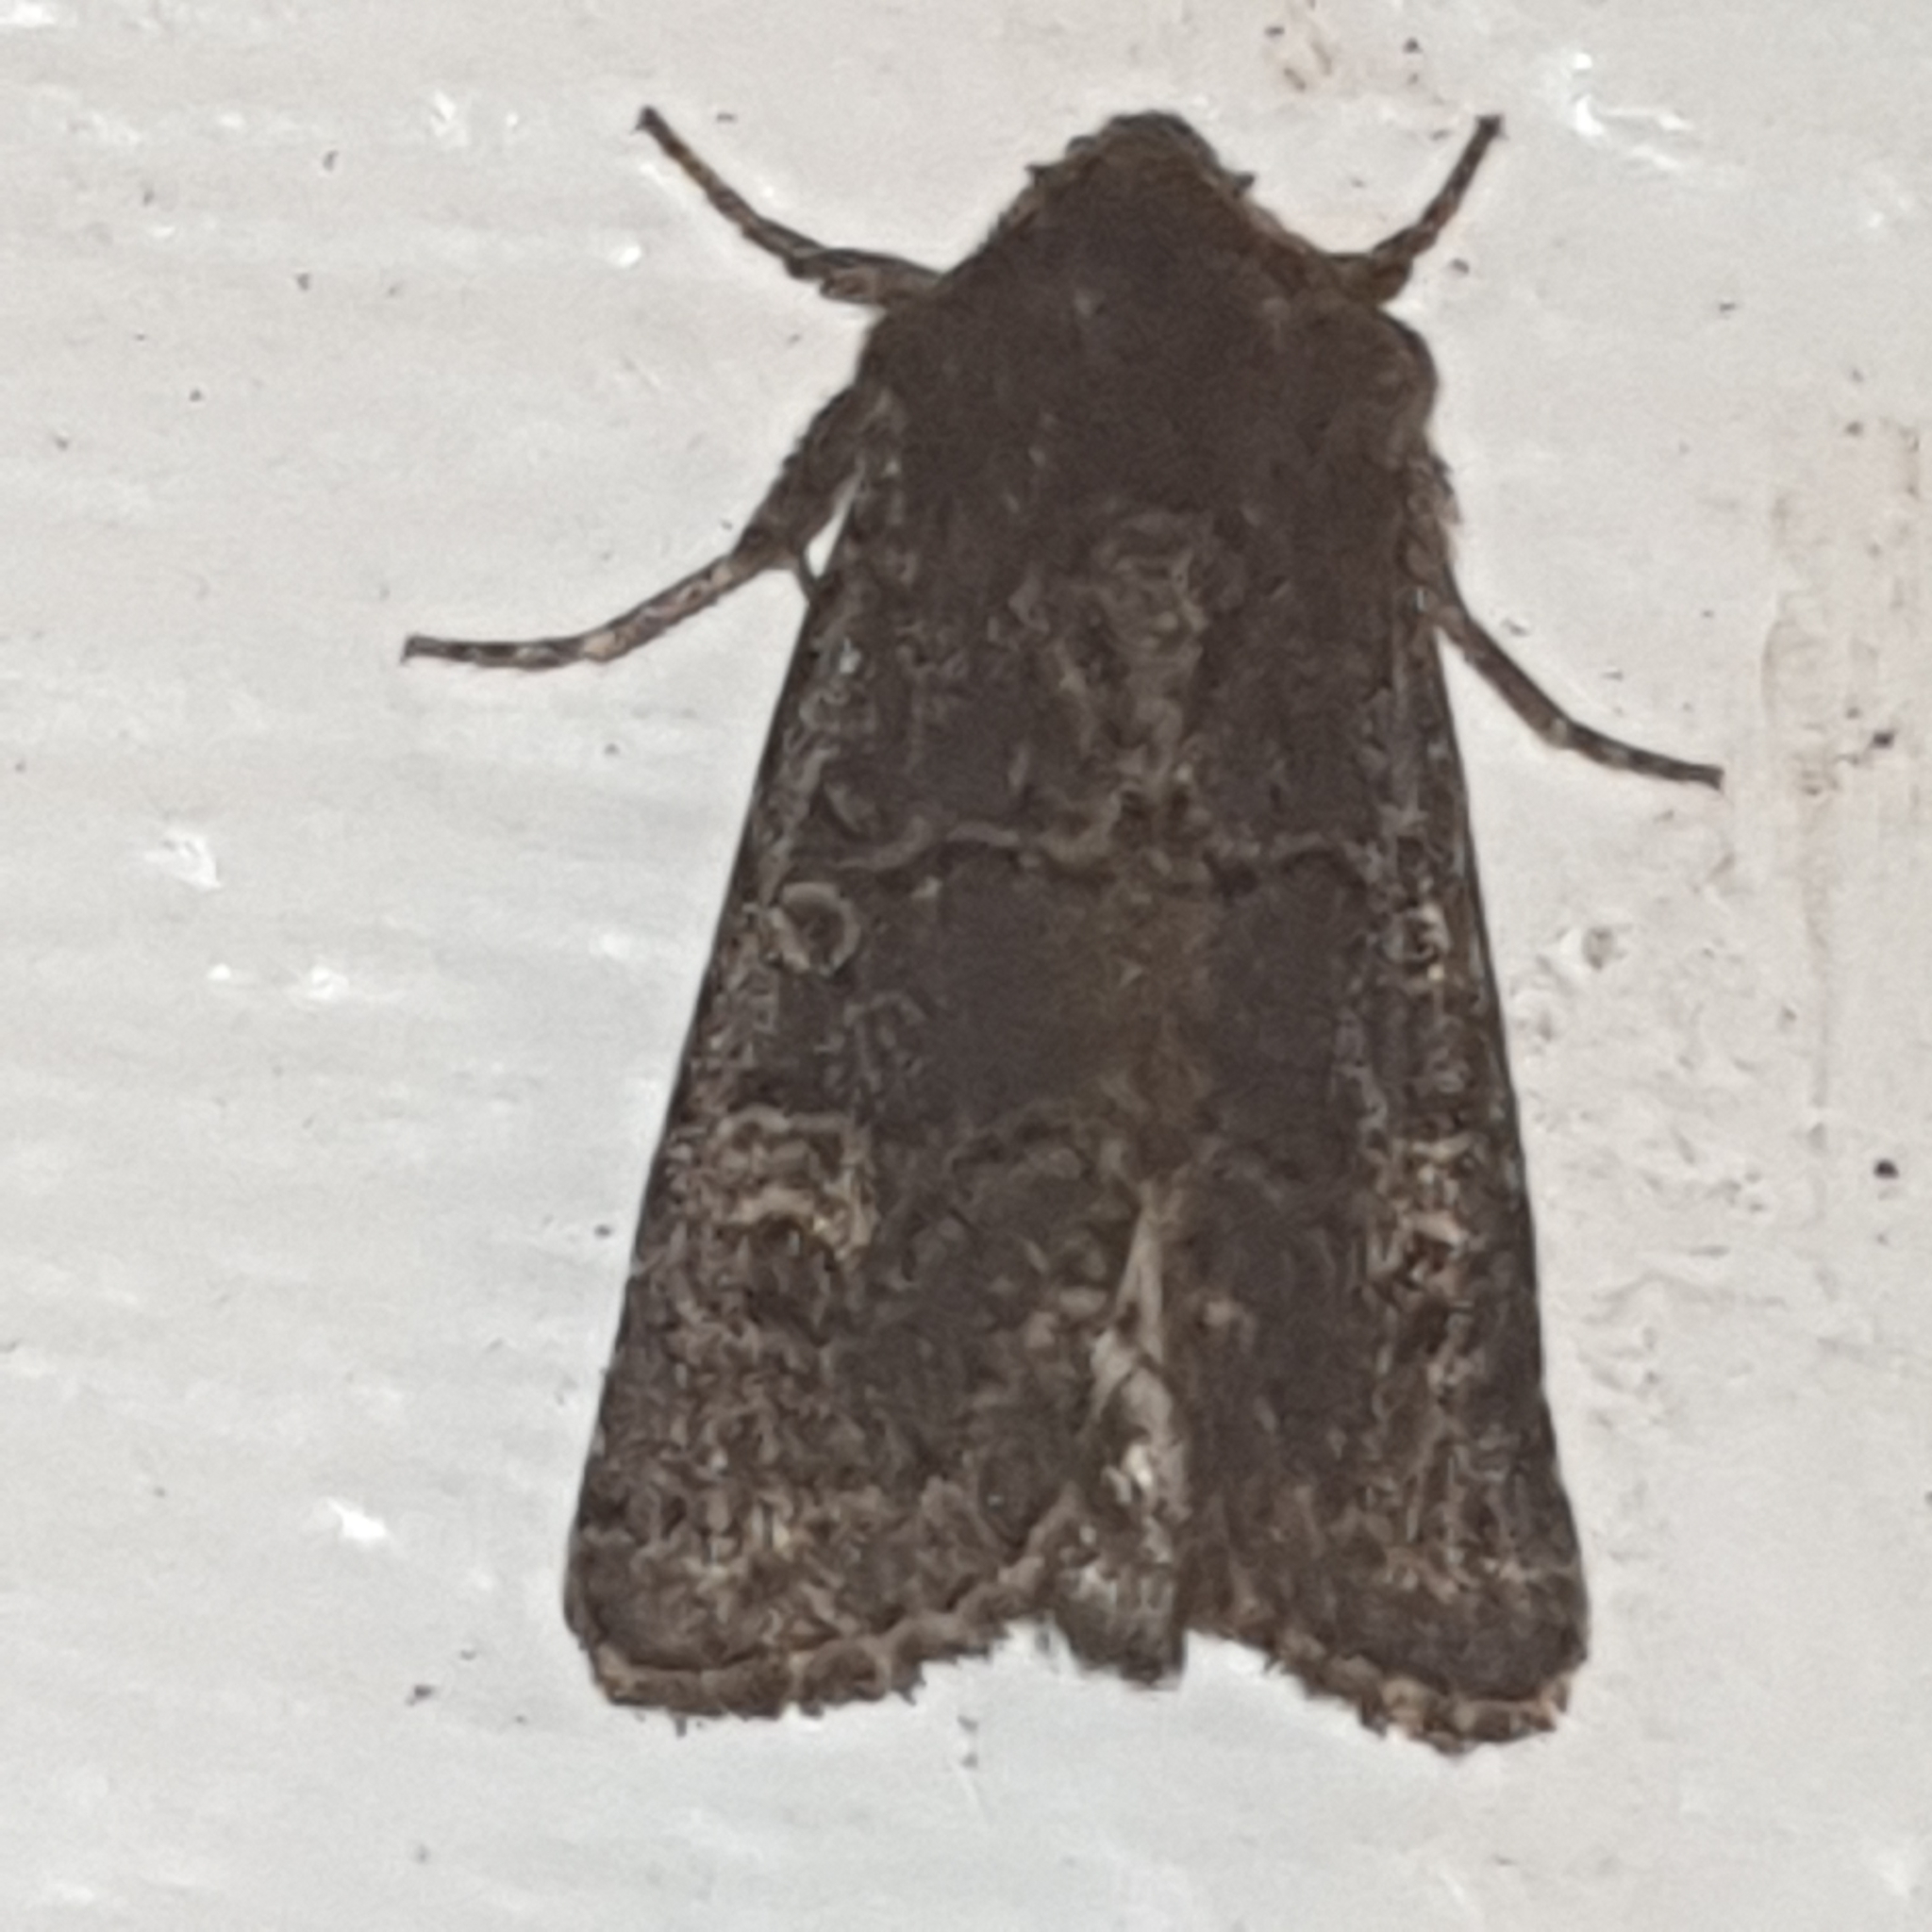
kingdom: Animalia
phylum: Arthropoda
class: Insecta
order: Lepidoptera
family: Noctuidae
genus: Tholera
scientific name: Tholera cespitis
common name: Hedge rustic
